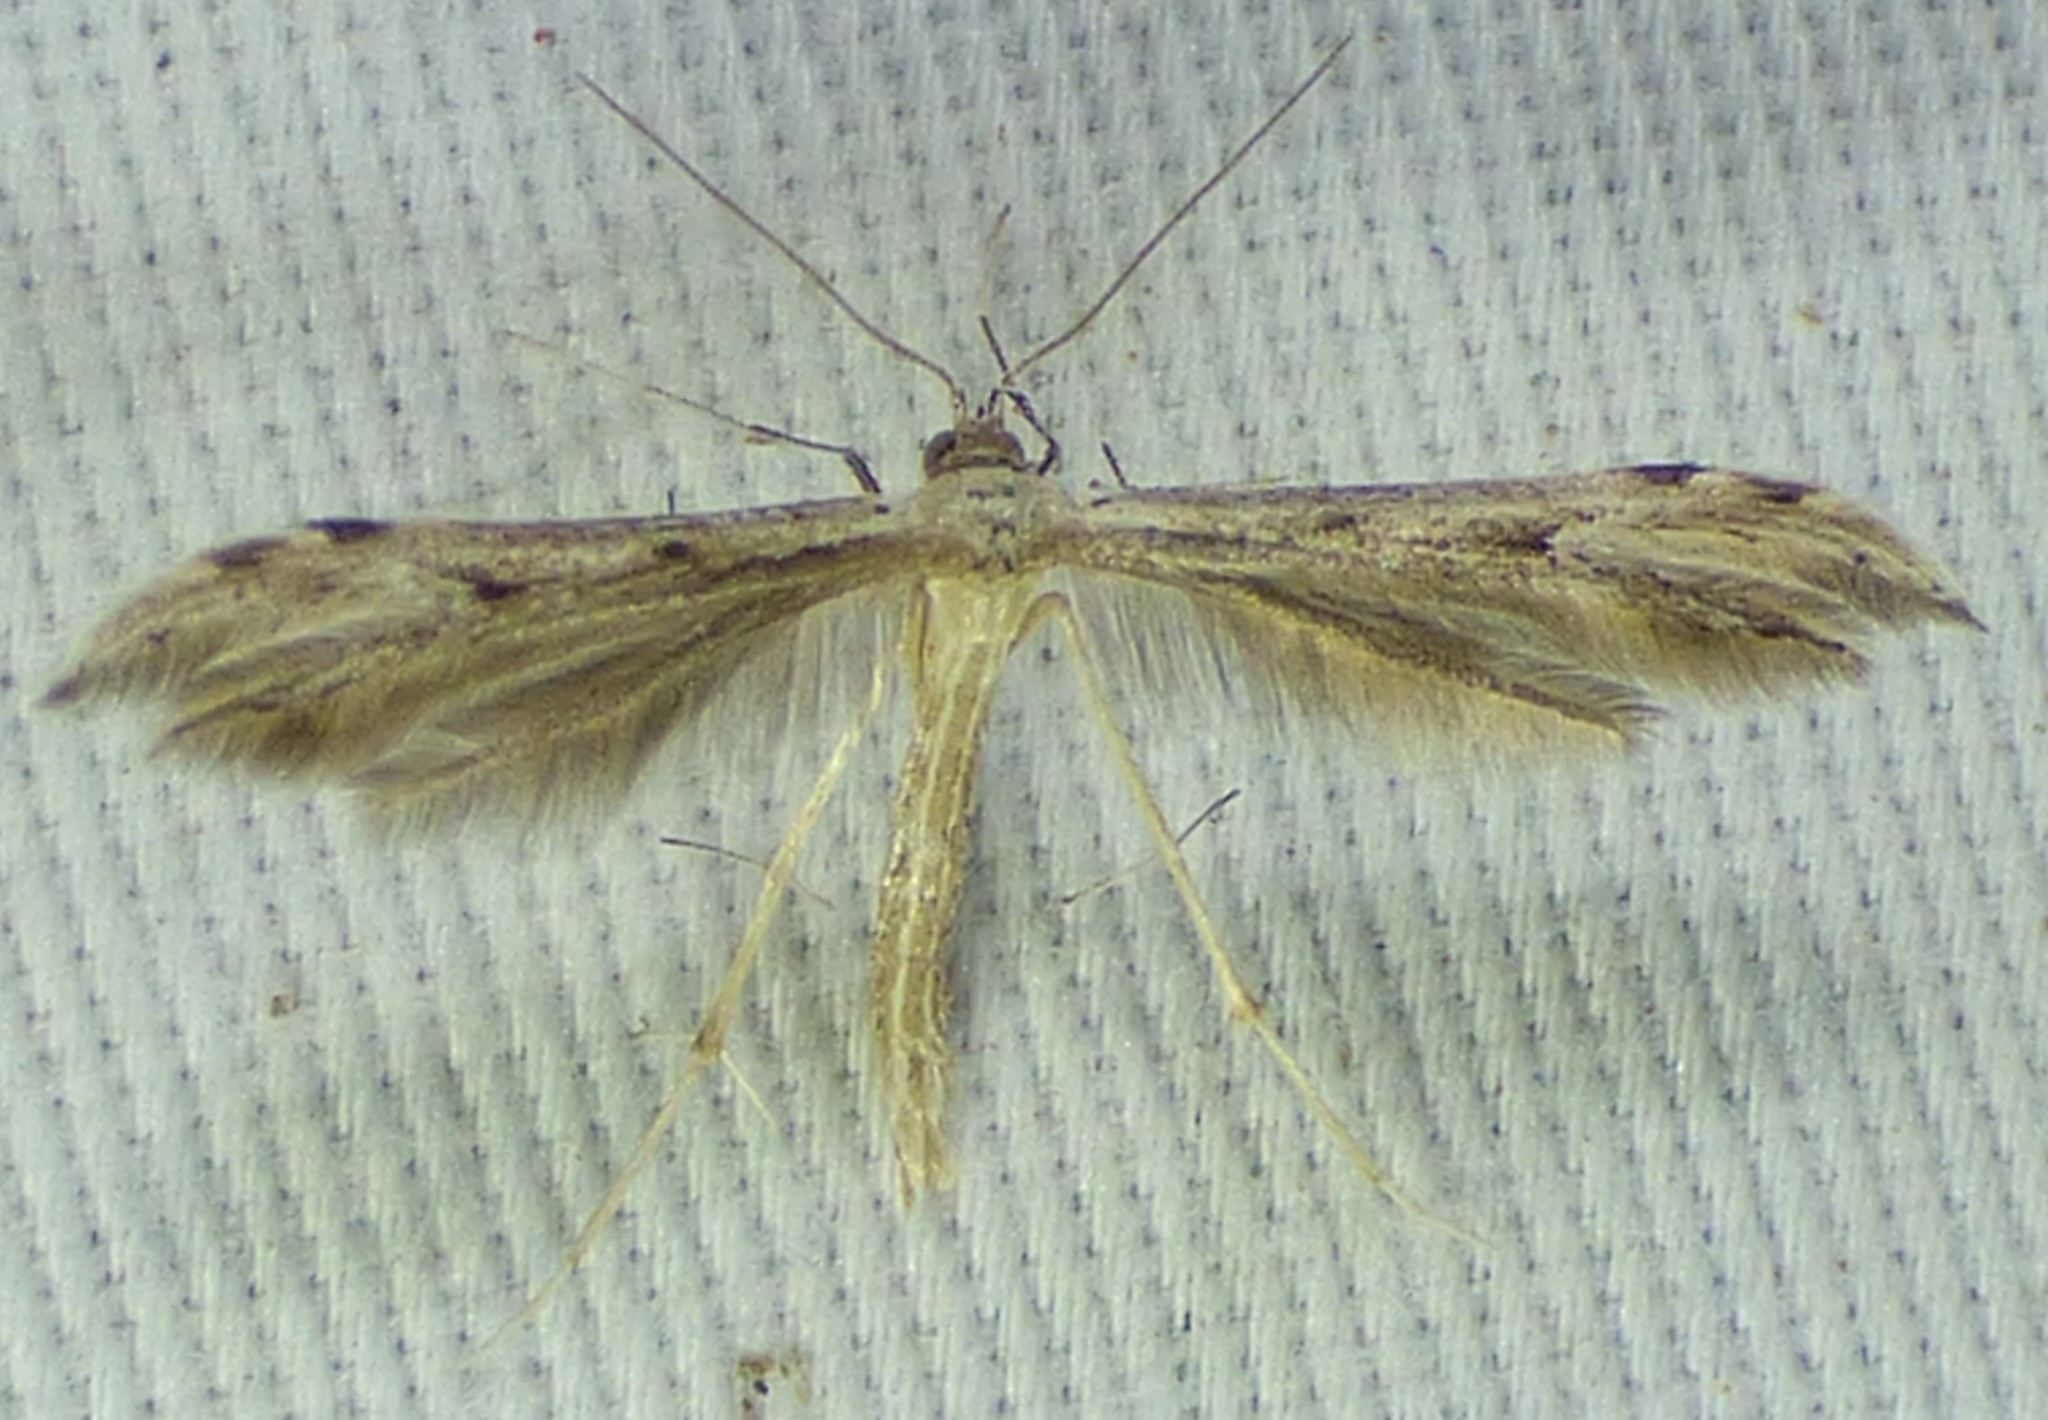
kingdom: Animalia
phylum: Arthropoda
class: Insecta
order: Lepidoptera
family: Pterophoridae
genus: Pselnophorus
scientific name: Pselnophorus belfragei
